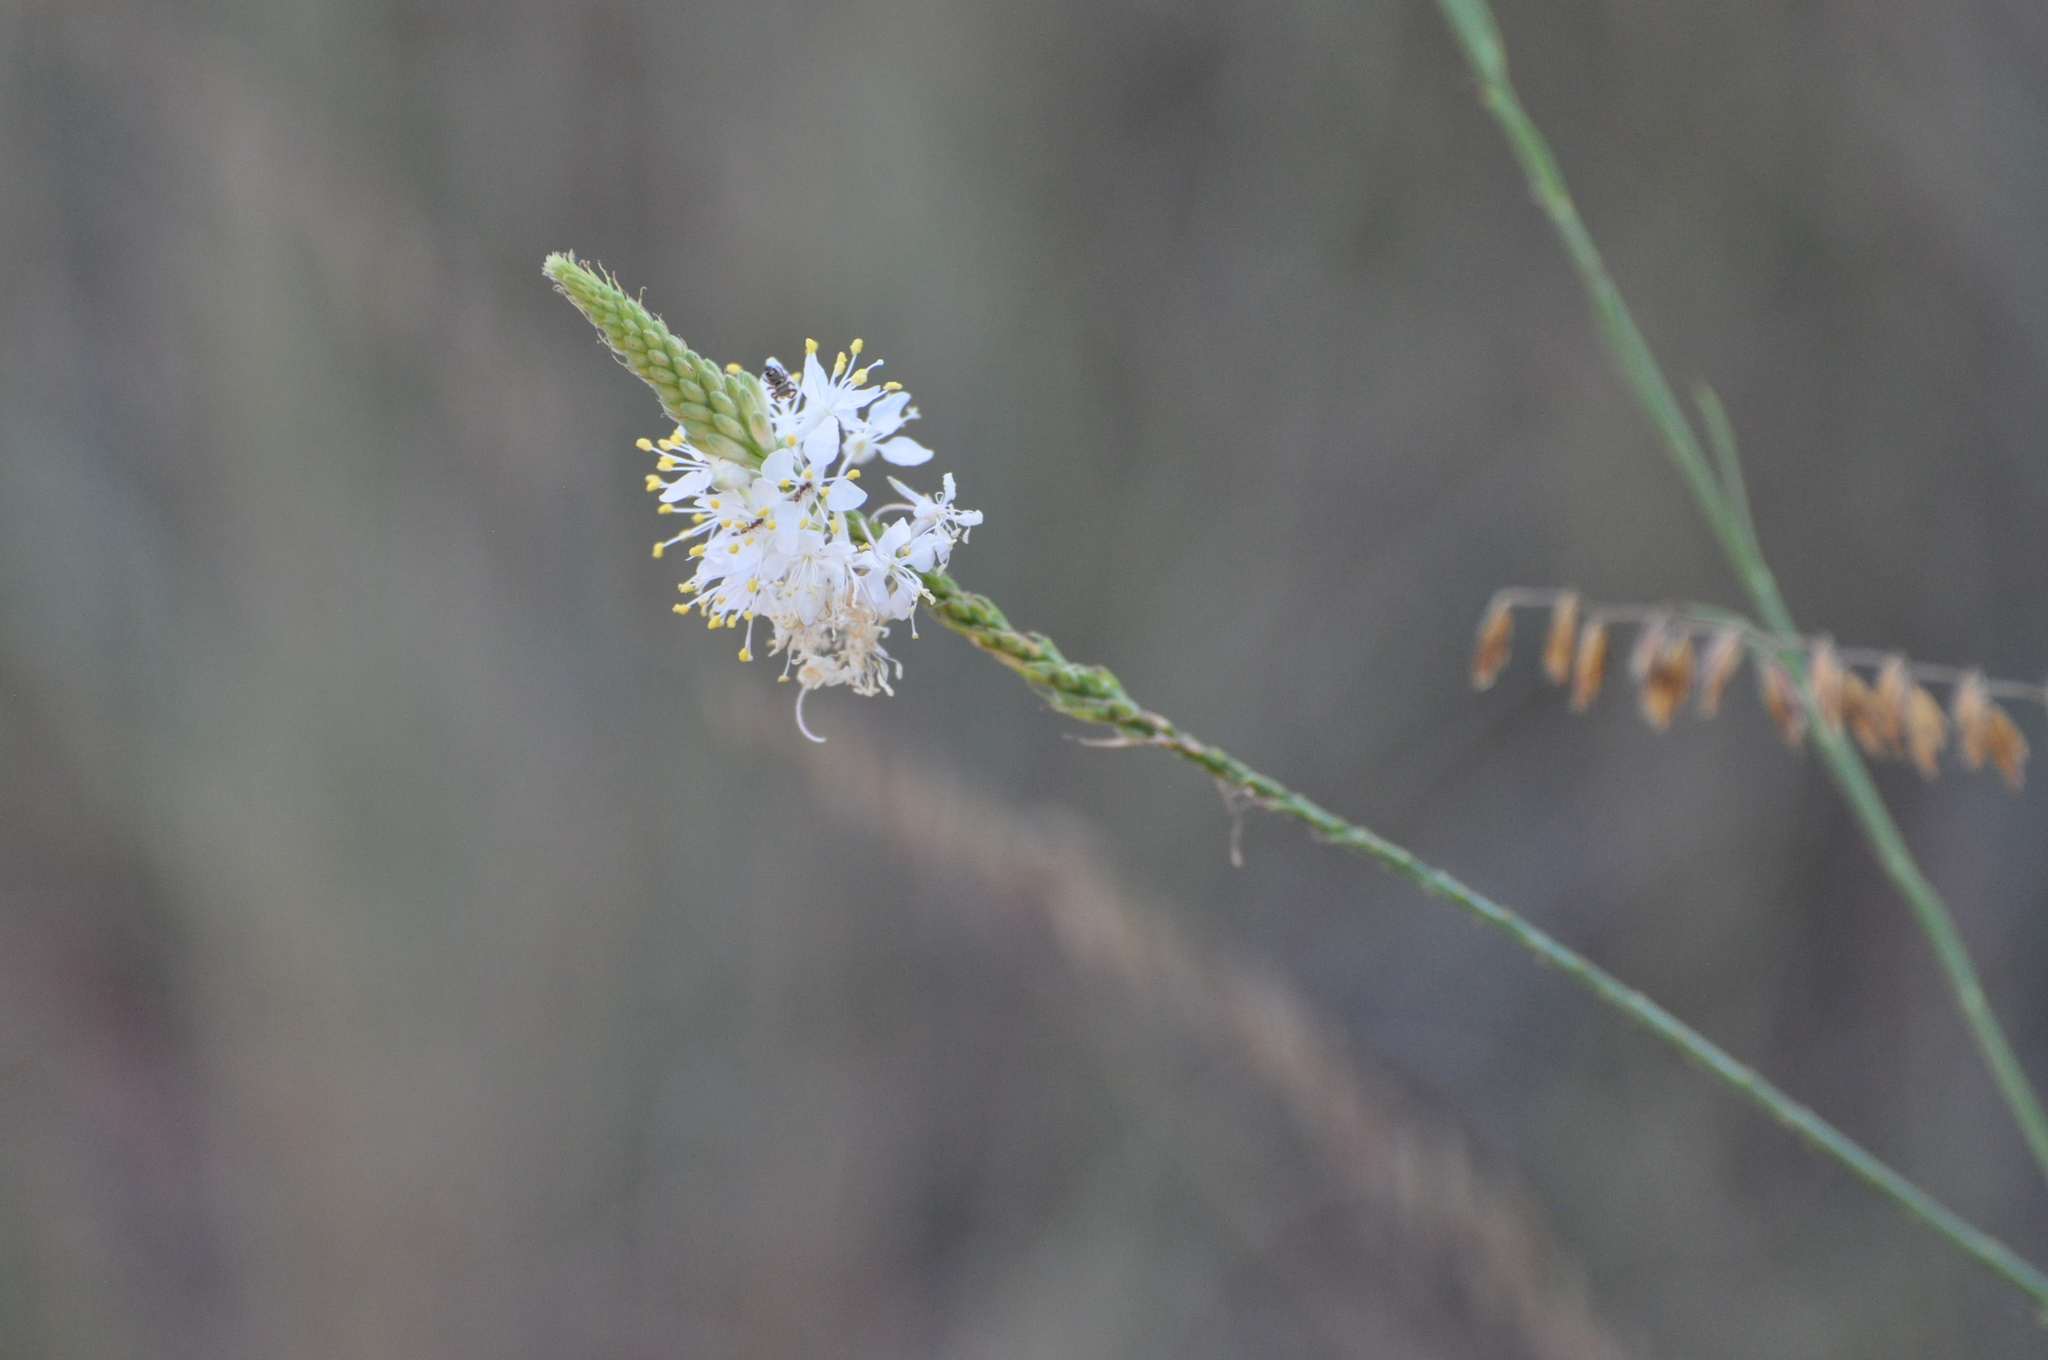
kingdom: Plantae
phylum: Tracheophyta
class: Magnoliopsida
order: Myrtales
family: Onagraceae
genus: Oenothera
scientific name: Oenothera glaucifolia
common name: False gaura
